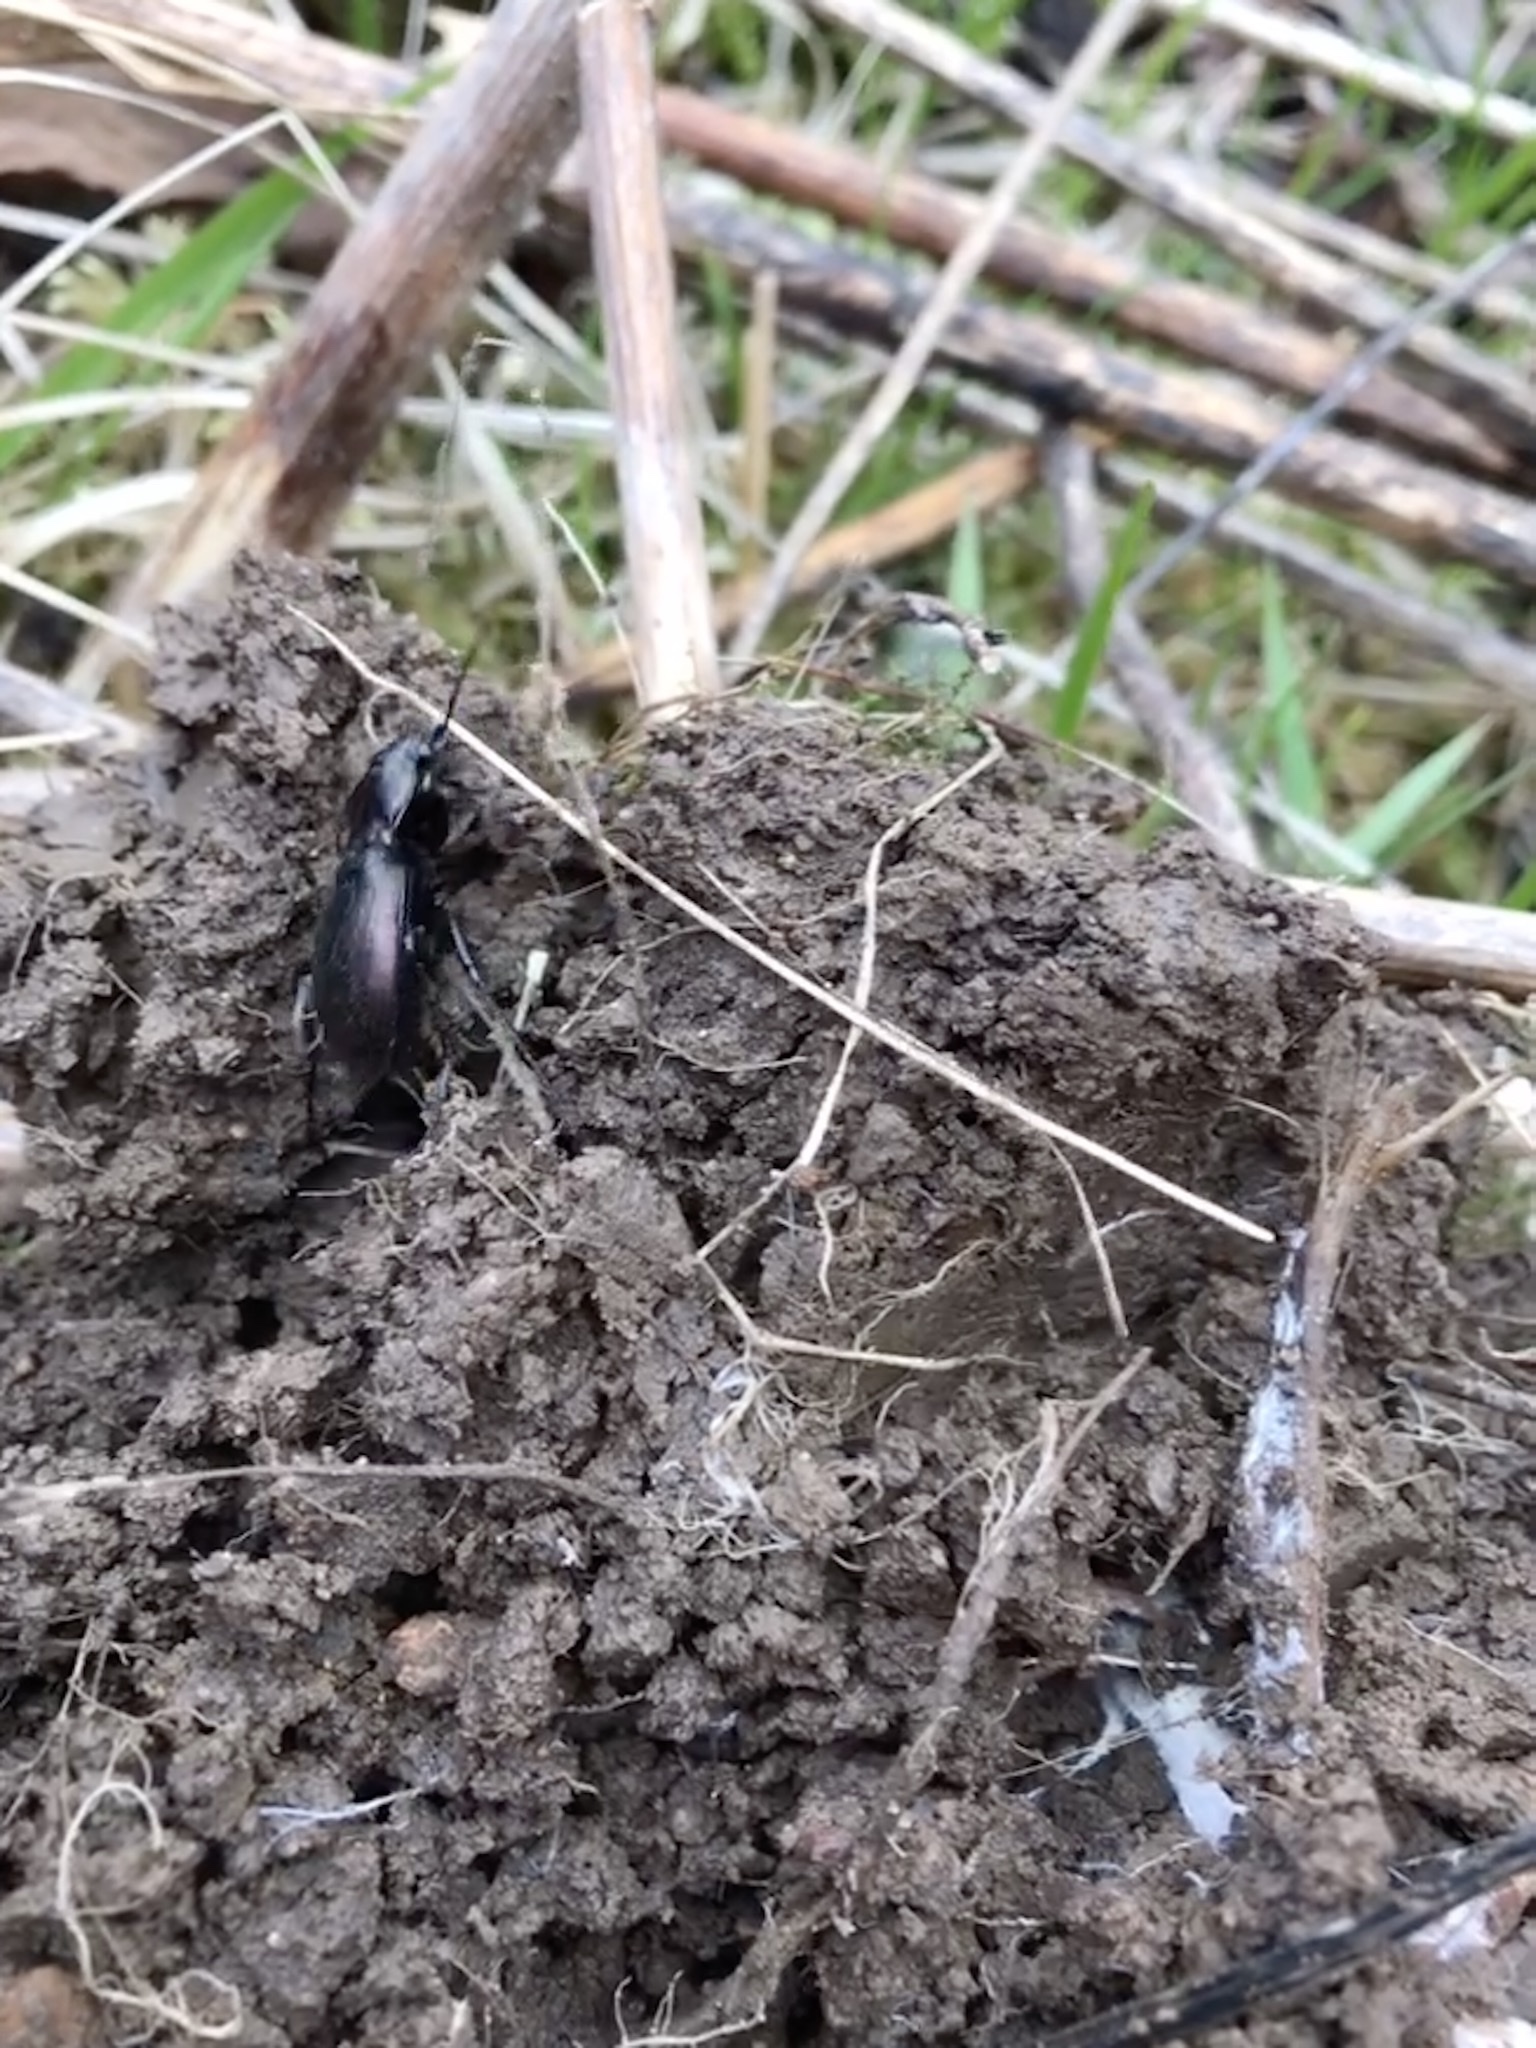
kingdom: Animalia
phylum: Arthropoda
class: Insecta
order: Coleoptera
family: Carabidae
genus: Carabus
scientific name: Carabus nemoralis
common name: European ground beetle
